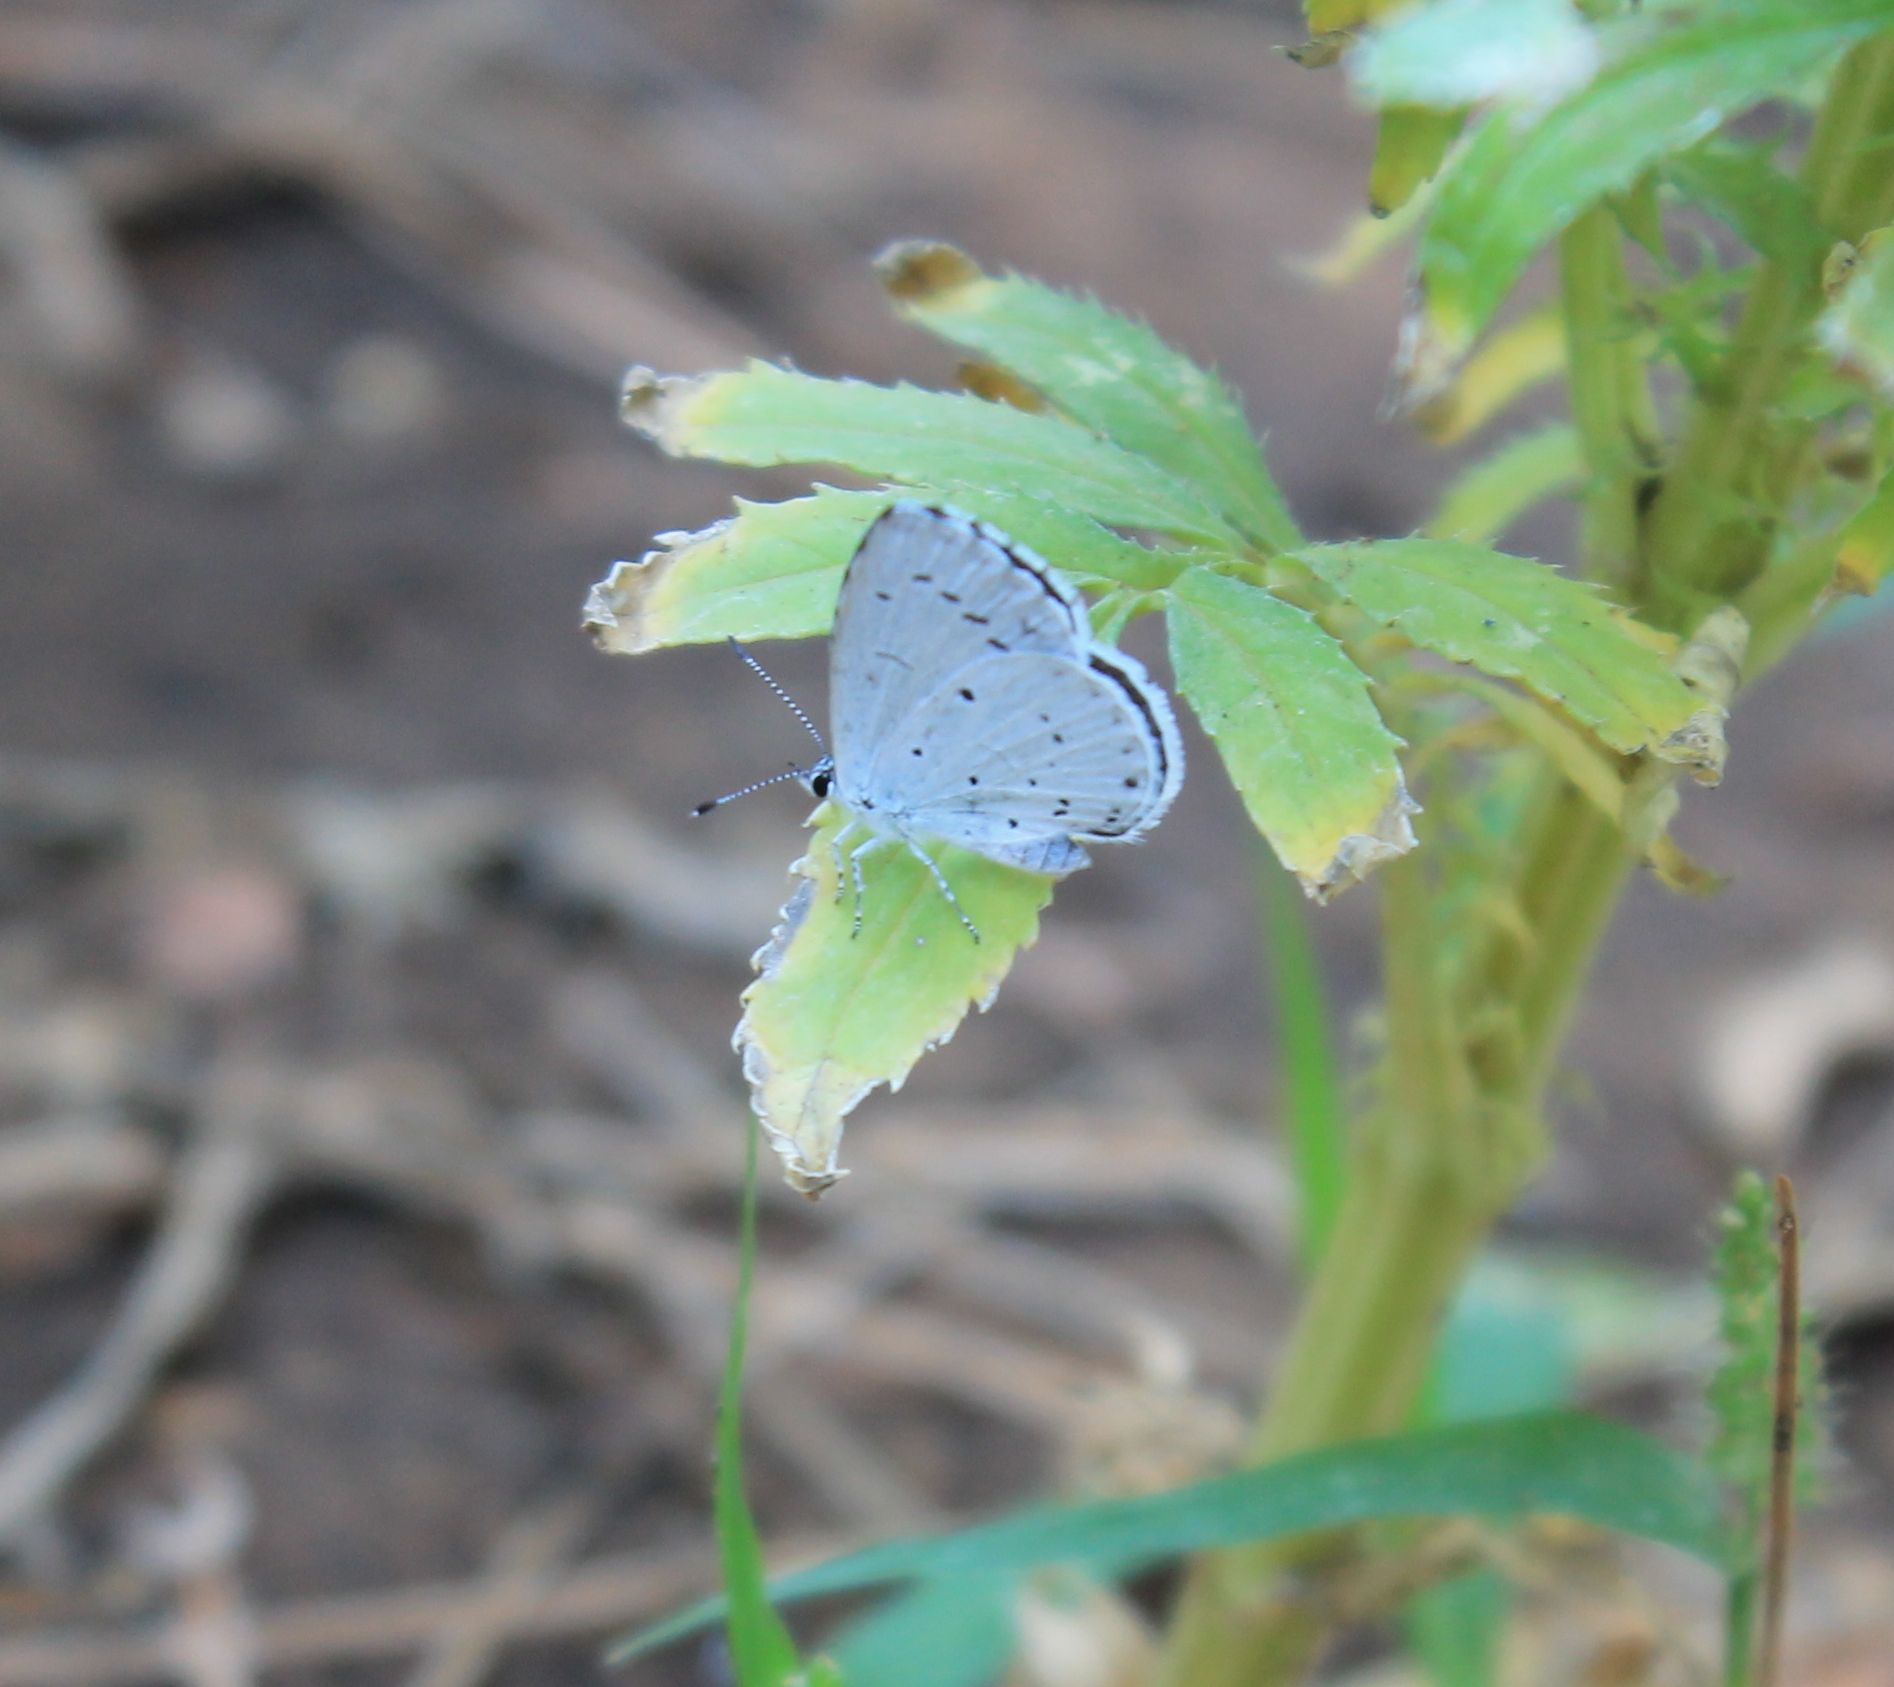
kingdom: Animalia
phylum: Arthropoda
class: Insecta
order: Lepidoptera
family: Lycaenidae
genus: Celastrina
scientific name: Celastrina argiolus
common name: Holly blue
